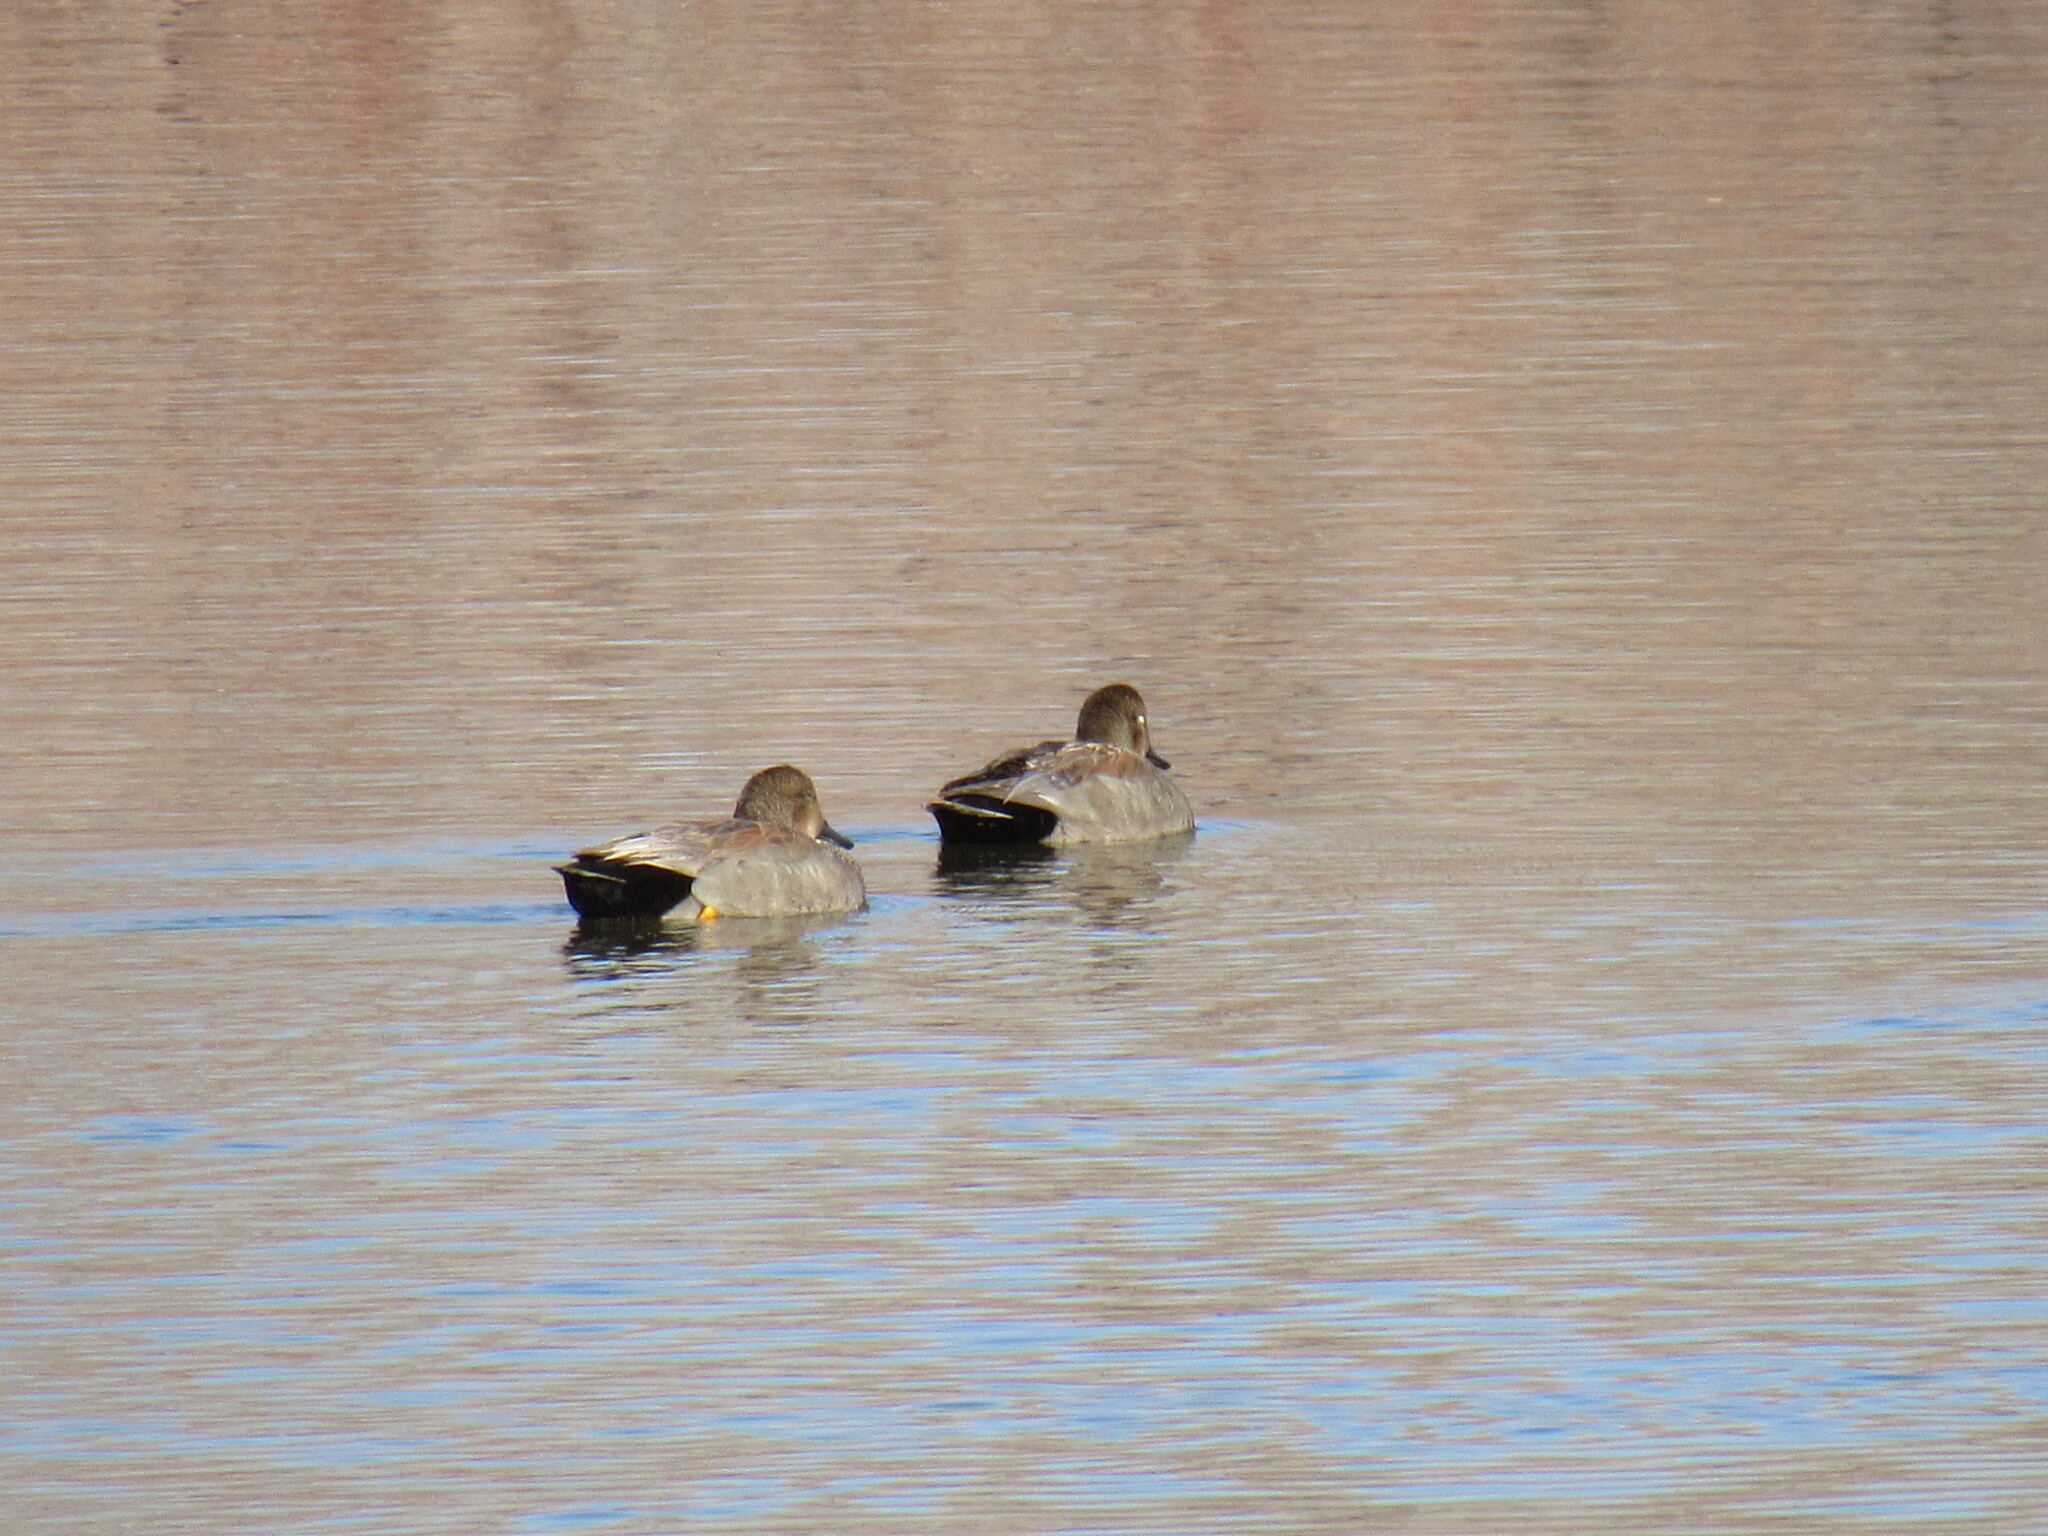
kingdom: Animalia
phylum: Chordata
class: Aves
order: Anseriformes
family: Anatidae
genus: Mareca
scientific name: Mareca strepera
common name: Gadwall
